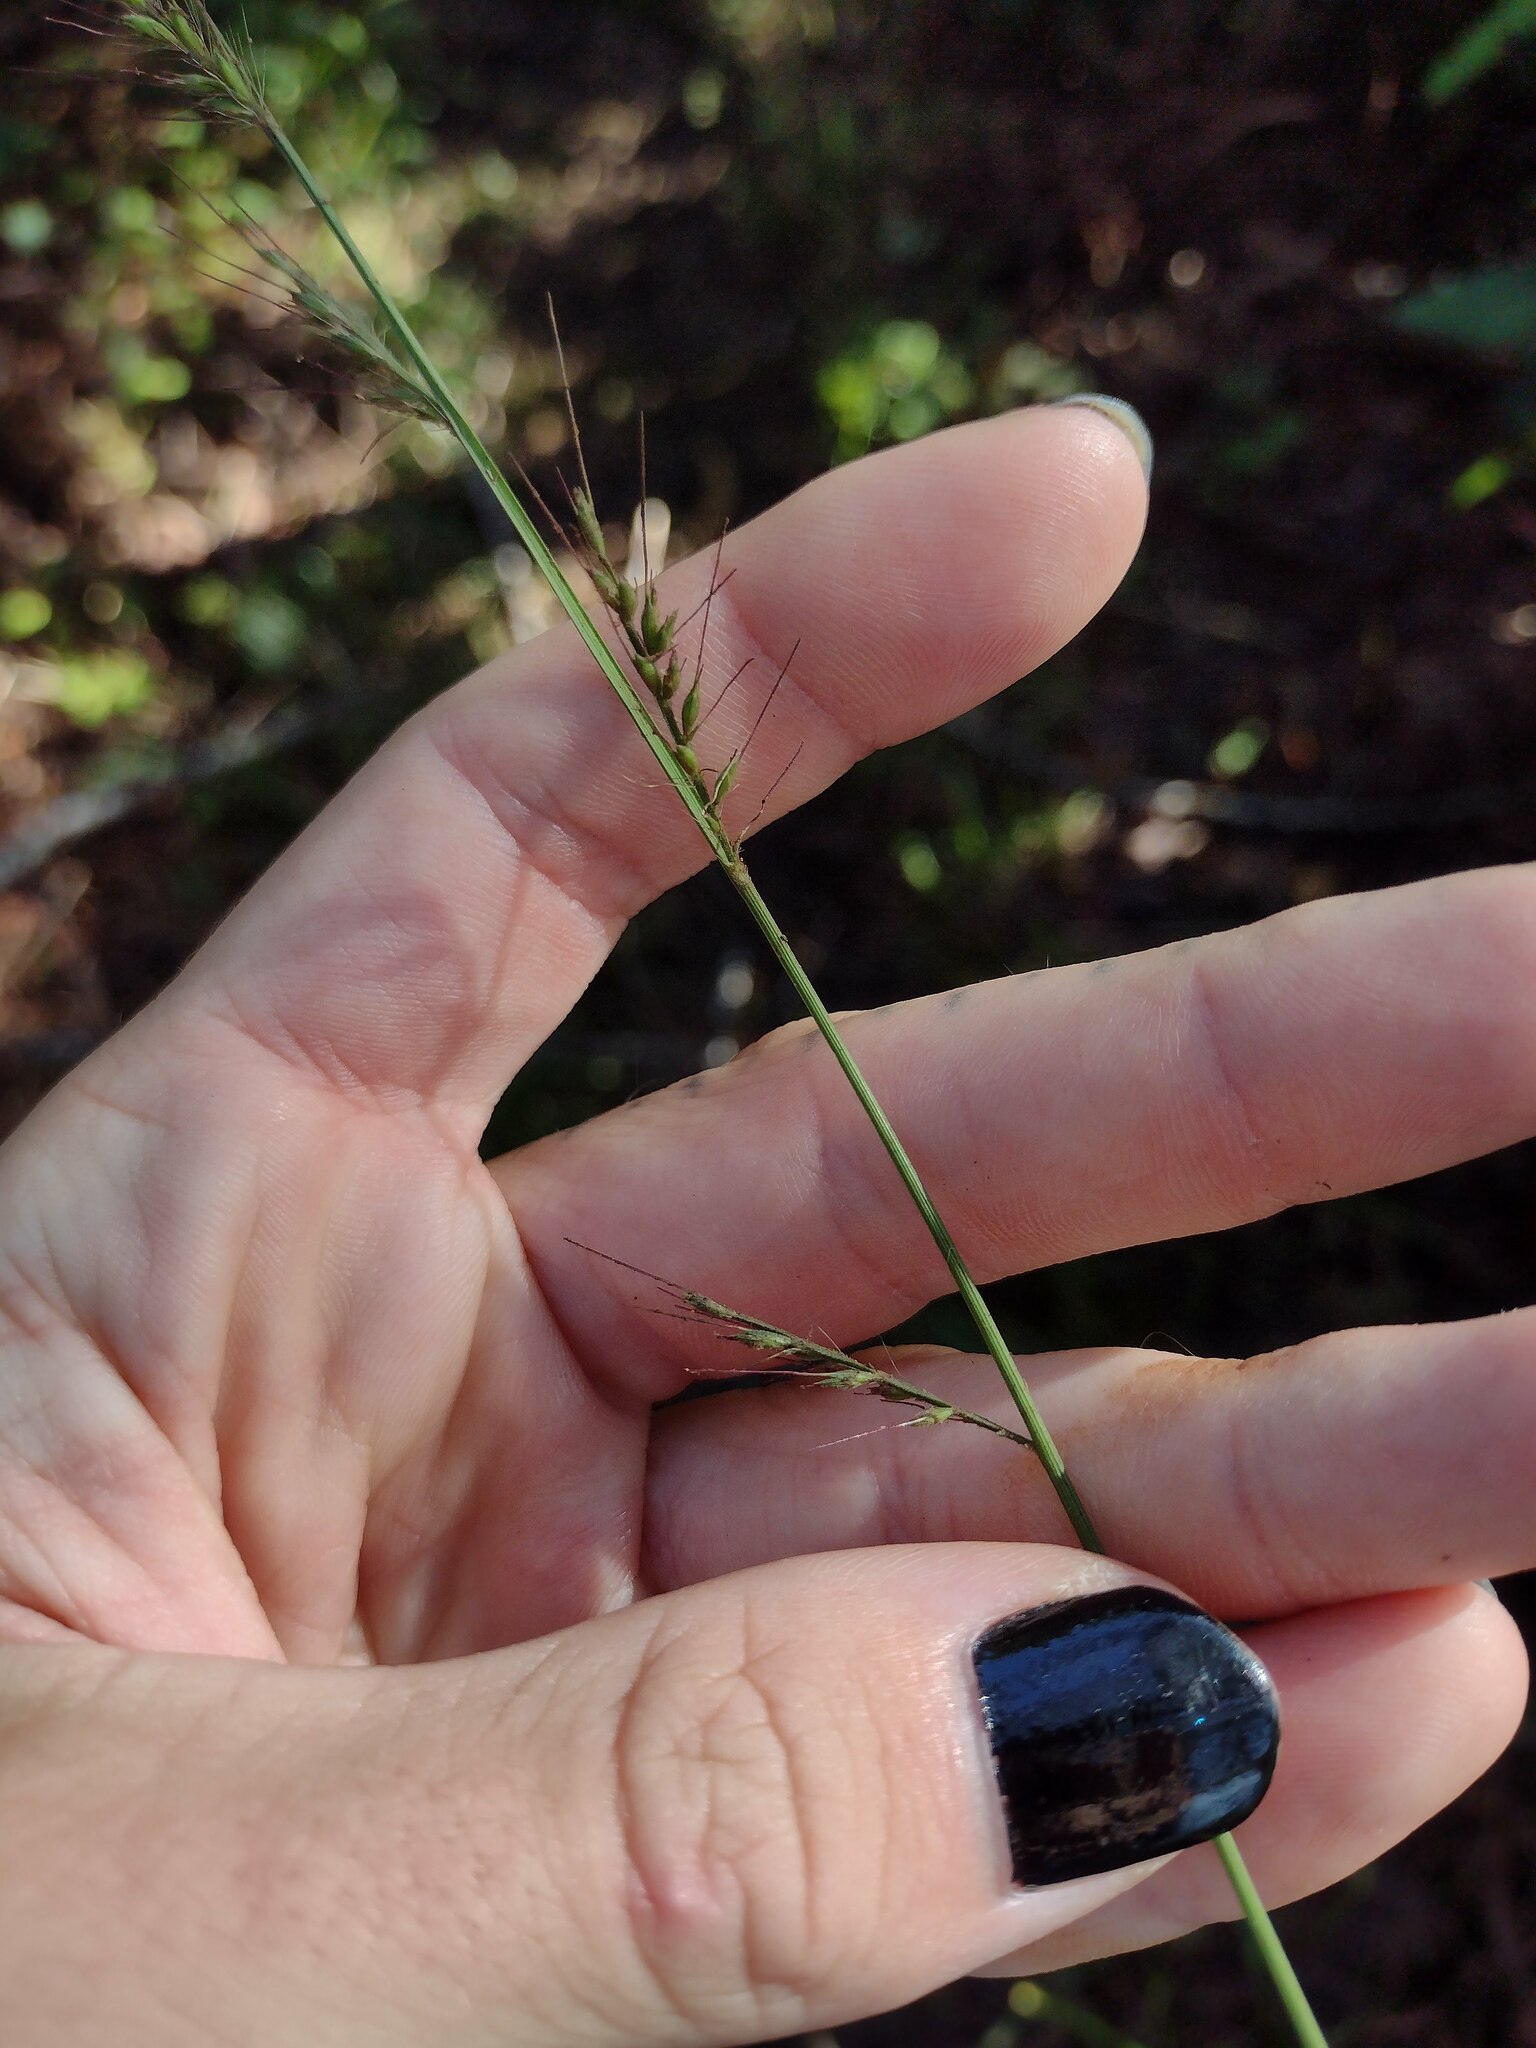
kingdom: Plantae
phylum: Tracheophyta
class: Liliopsida
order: Poales
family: Poaceae
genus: Oplismenus
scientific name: Oplismenus hirtellus
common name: Basketgrass
